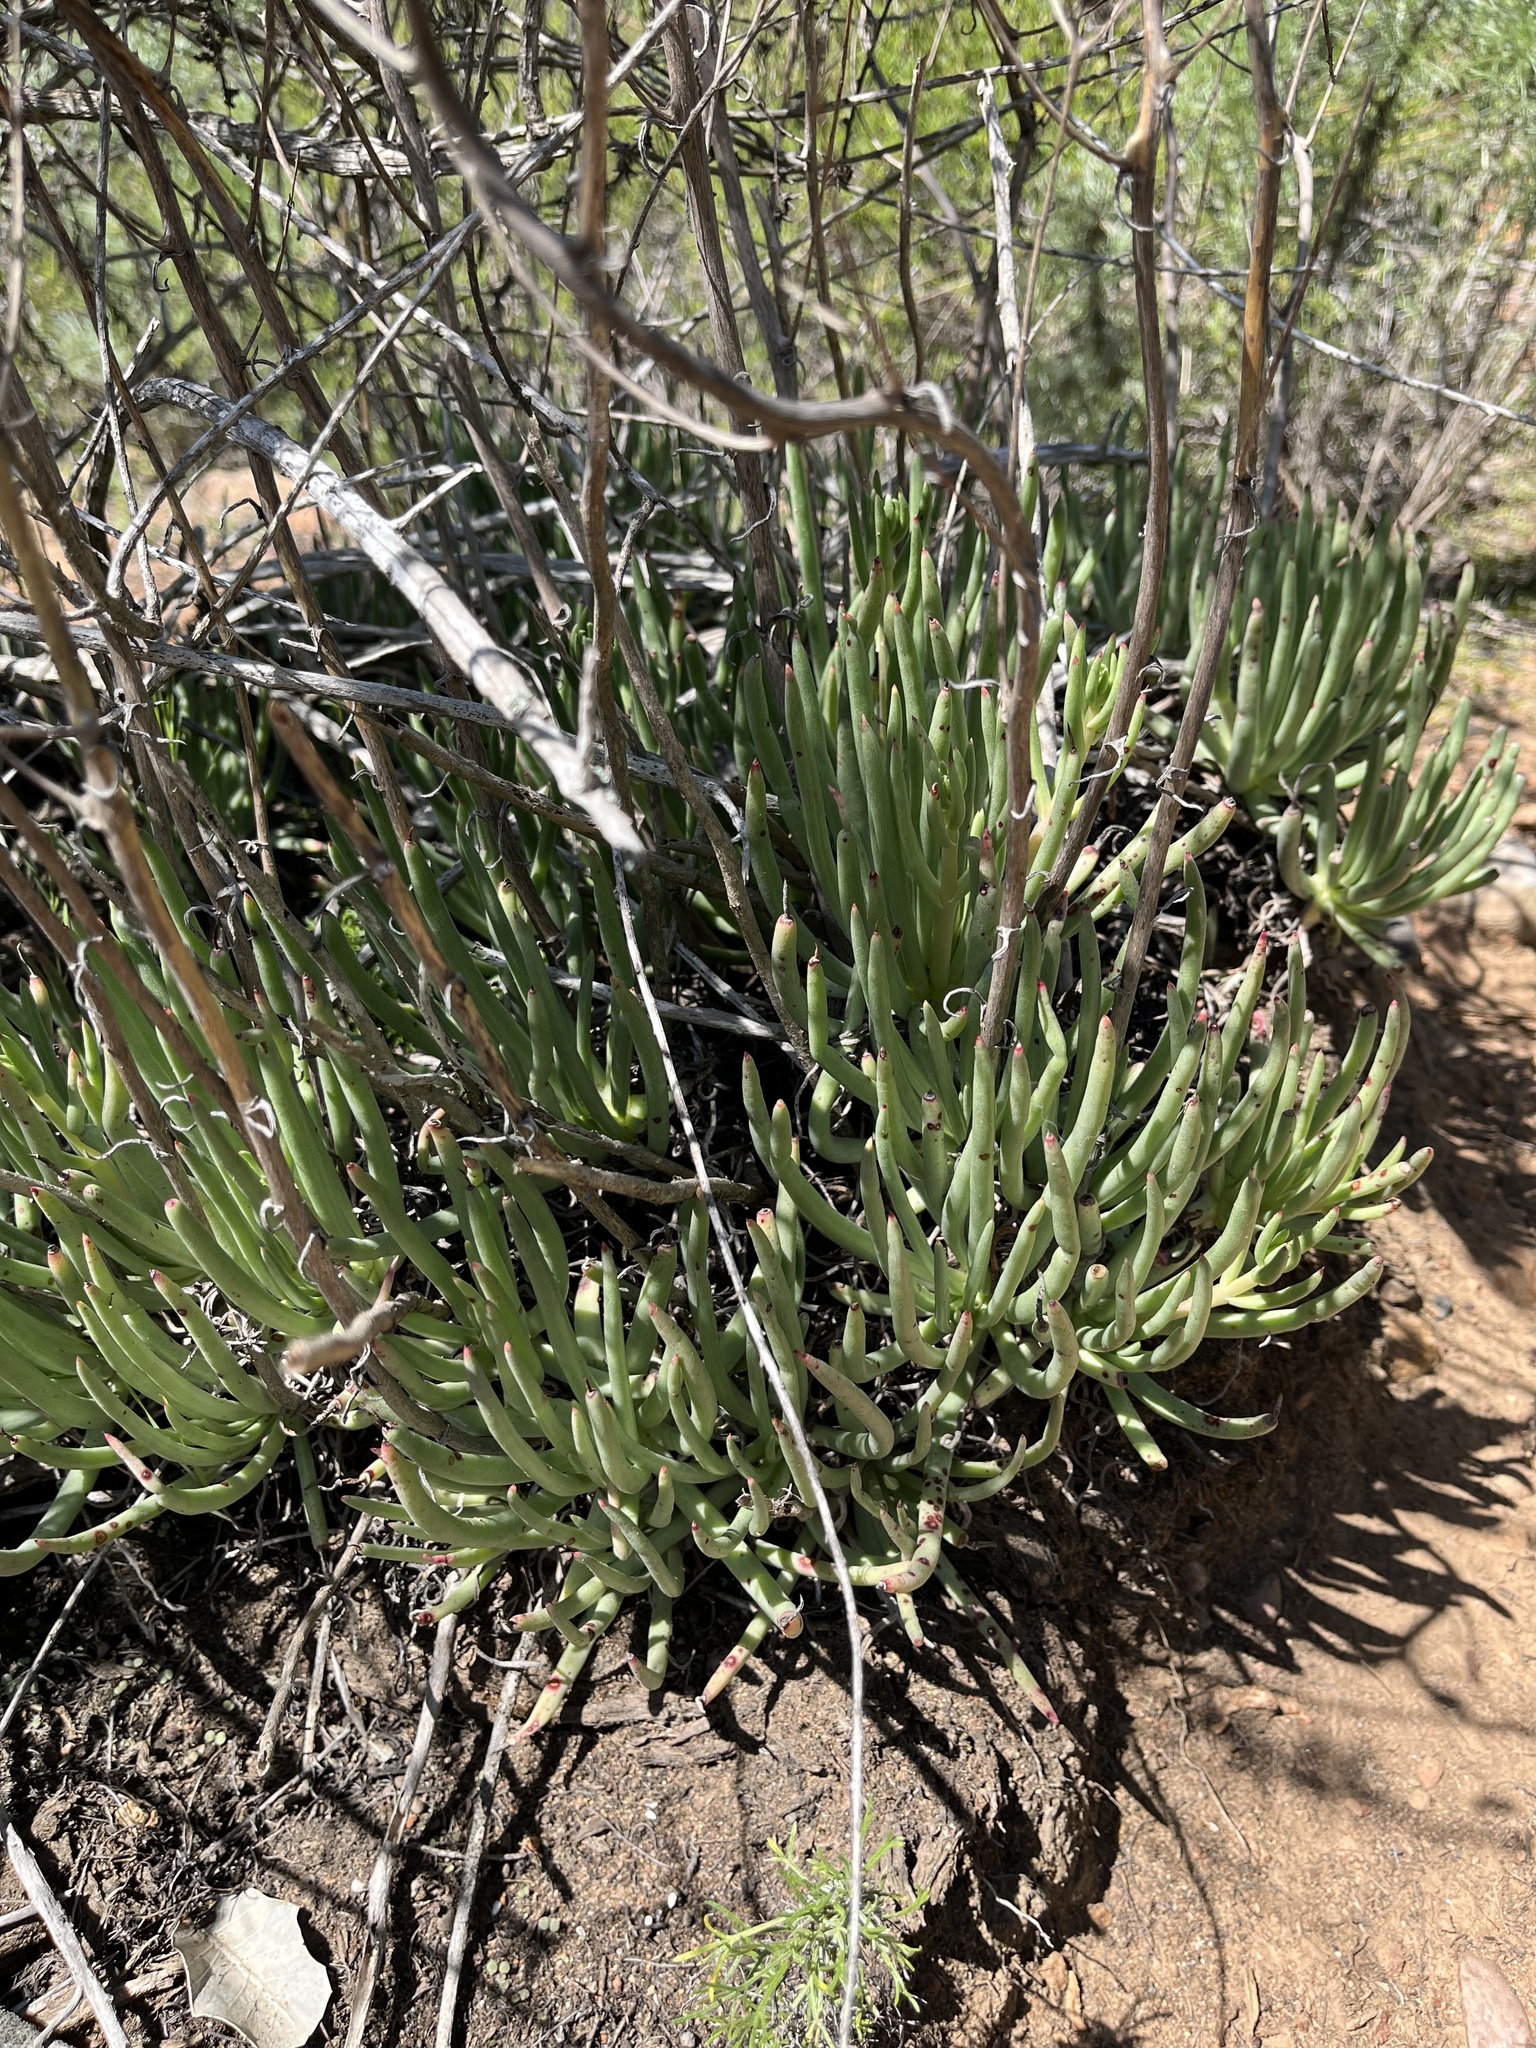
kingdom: Plantae
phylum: Tracheophyta
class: Magnoliopsida
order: Saxifragales
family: Crassulaceae
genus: Dudleya
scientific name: Dudleya edulis
